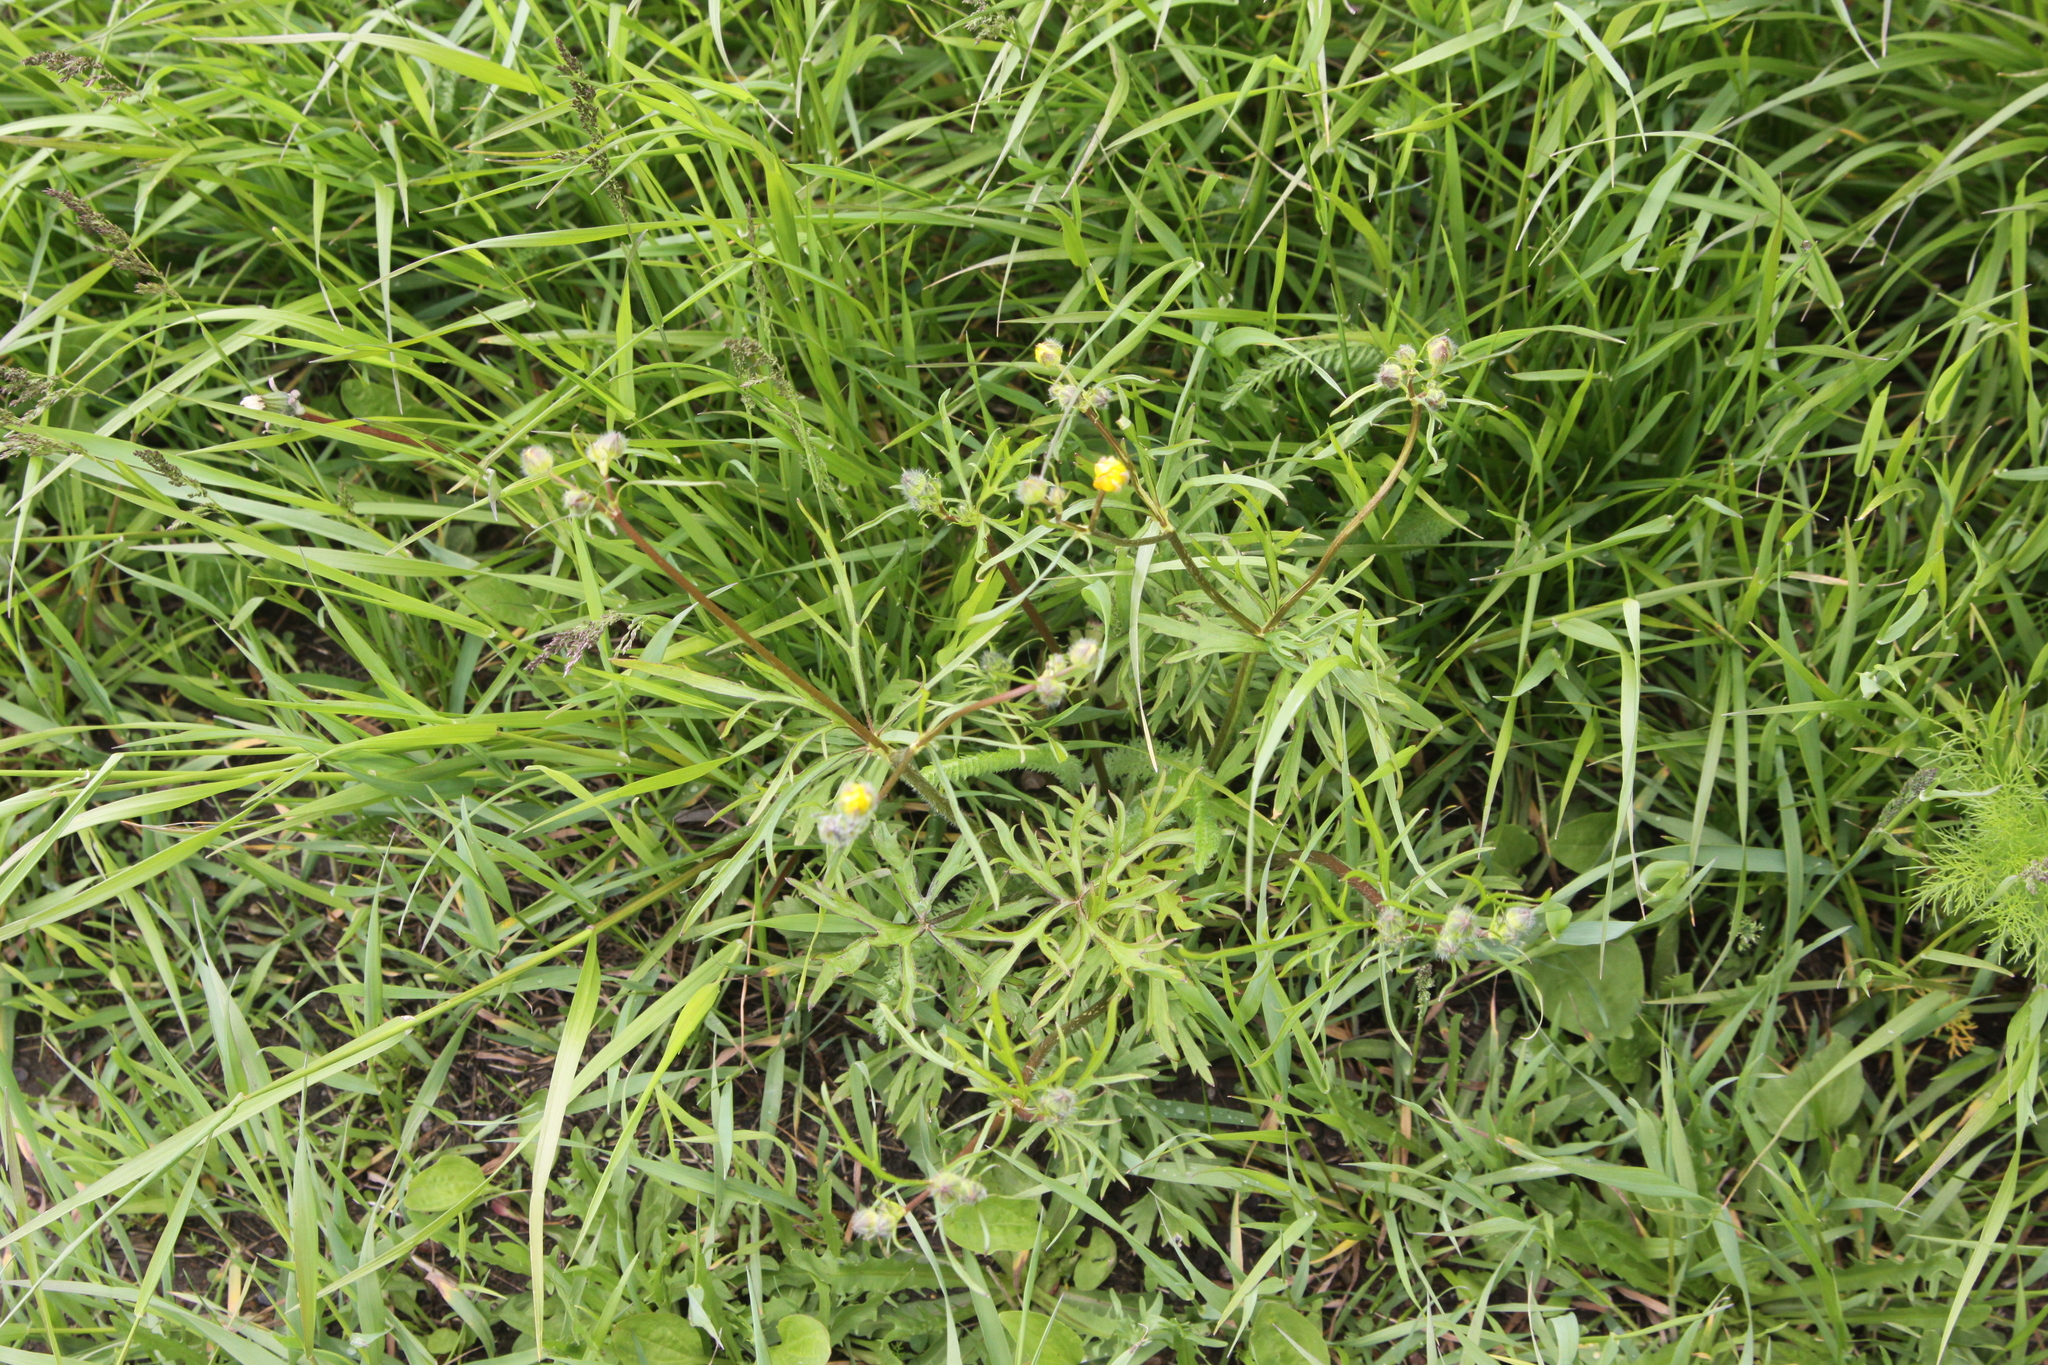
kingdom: Plantae
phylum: Tracheophyta
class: Magnoliopsida
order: Ranunculales
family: Ranunculaceae
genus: Ranunculus
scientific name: Ranunculus polyanthemos
